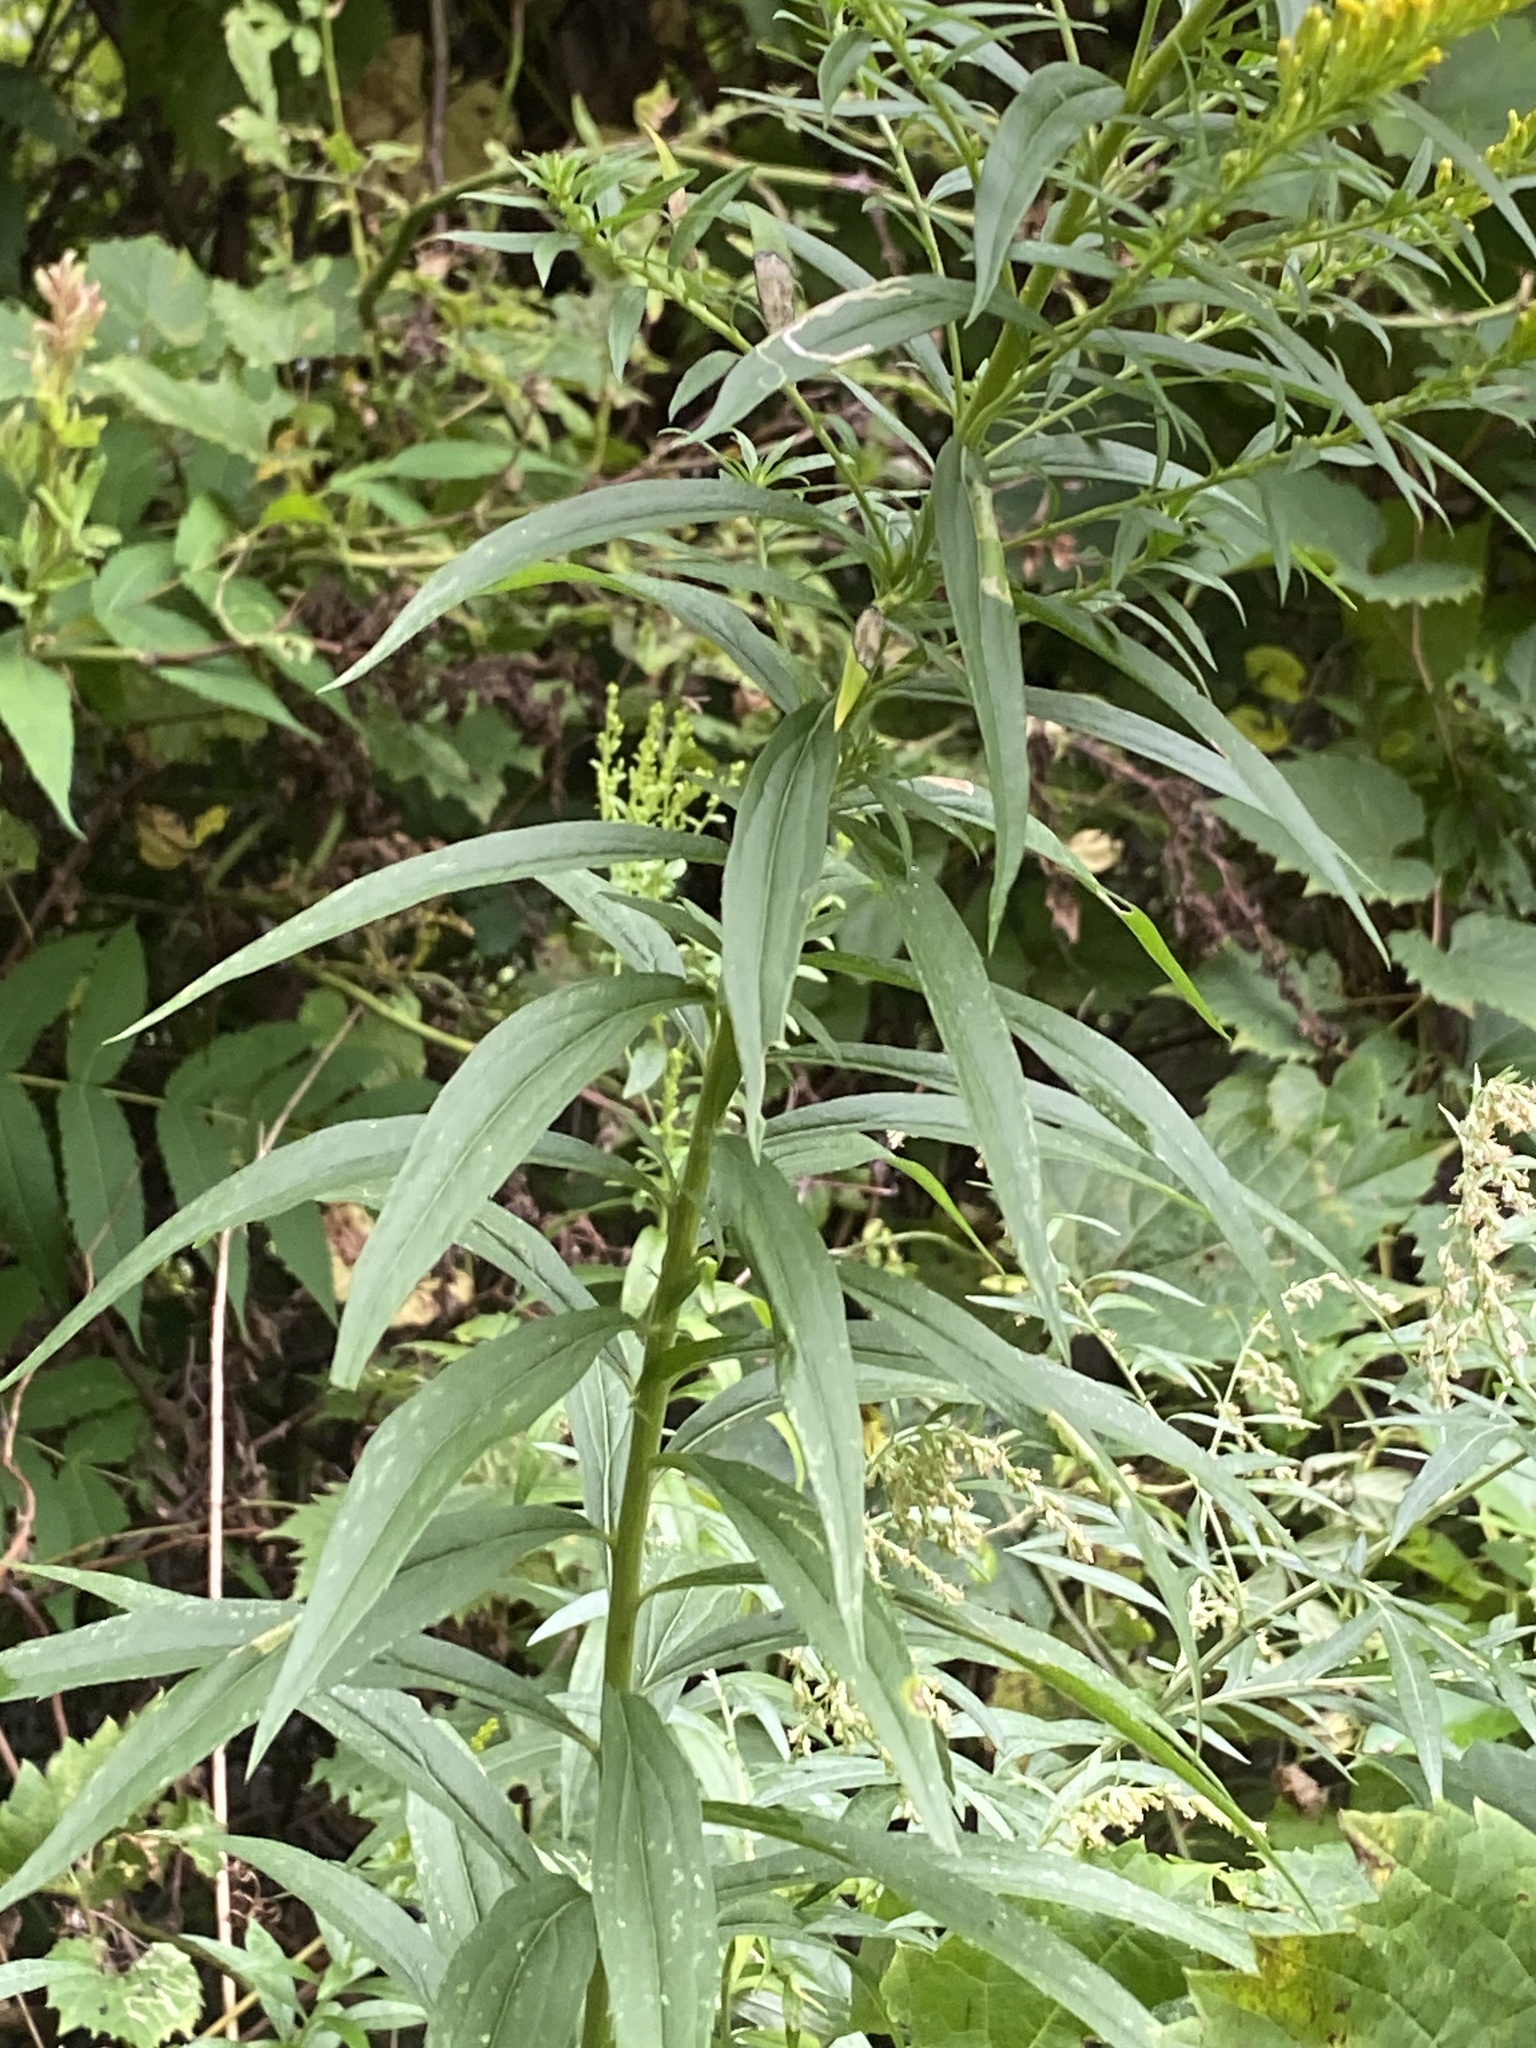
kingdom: Plantae
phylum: Tracheophyta
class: Magnoliopsida
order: Asterales
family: Asteraceae
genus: Solidago
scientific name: Solidago altissima
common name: Late goldenrod
